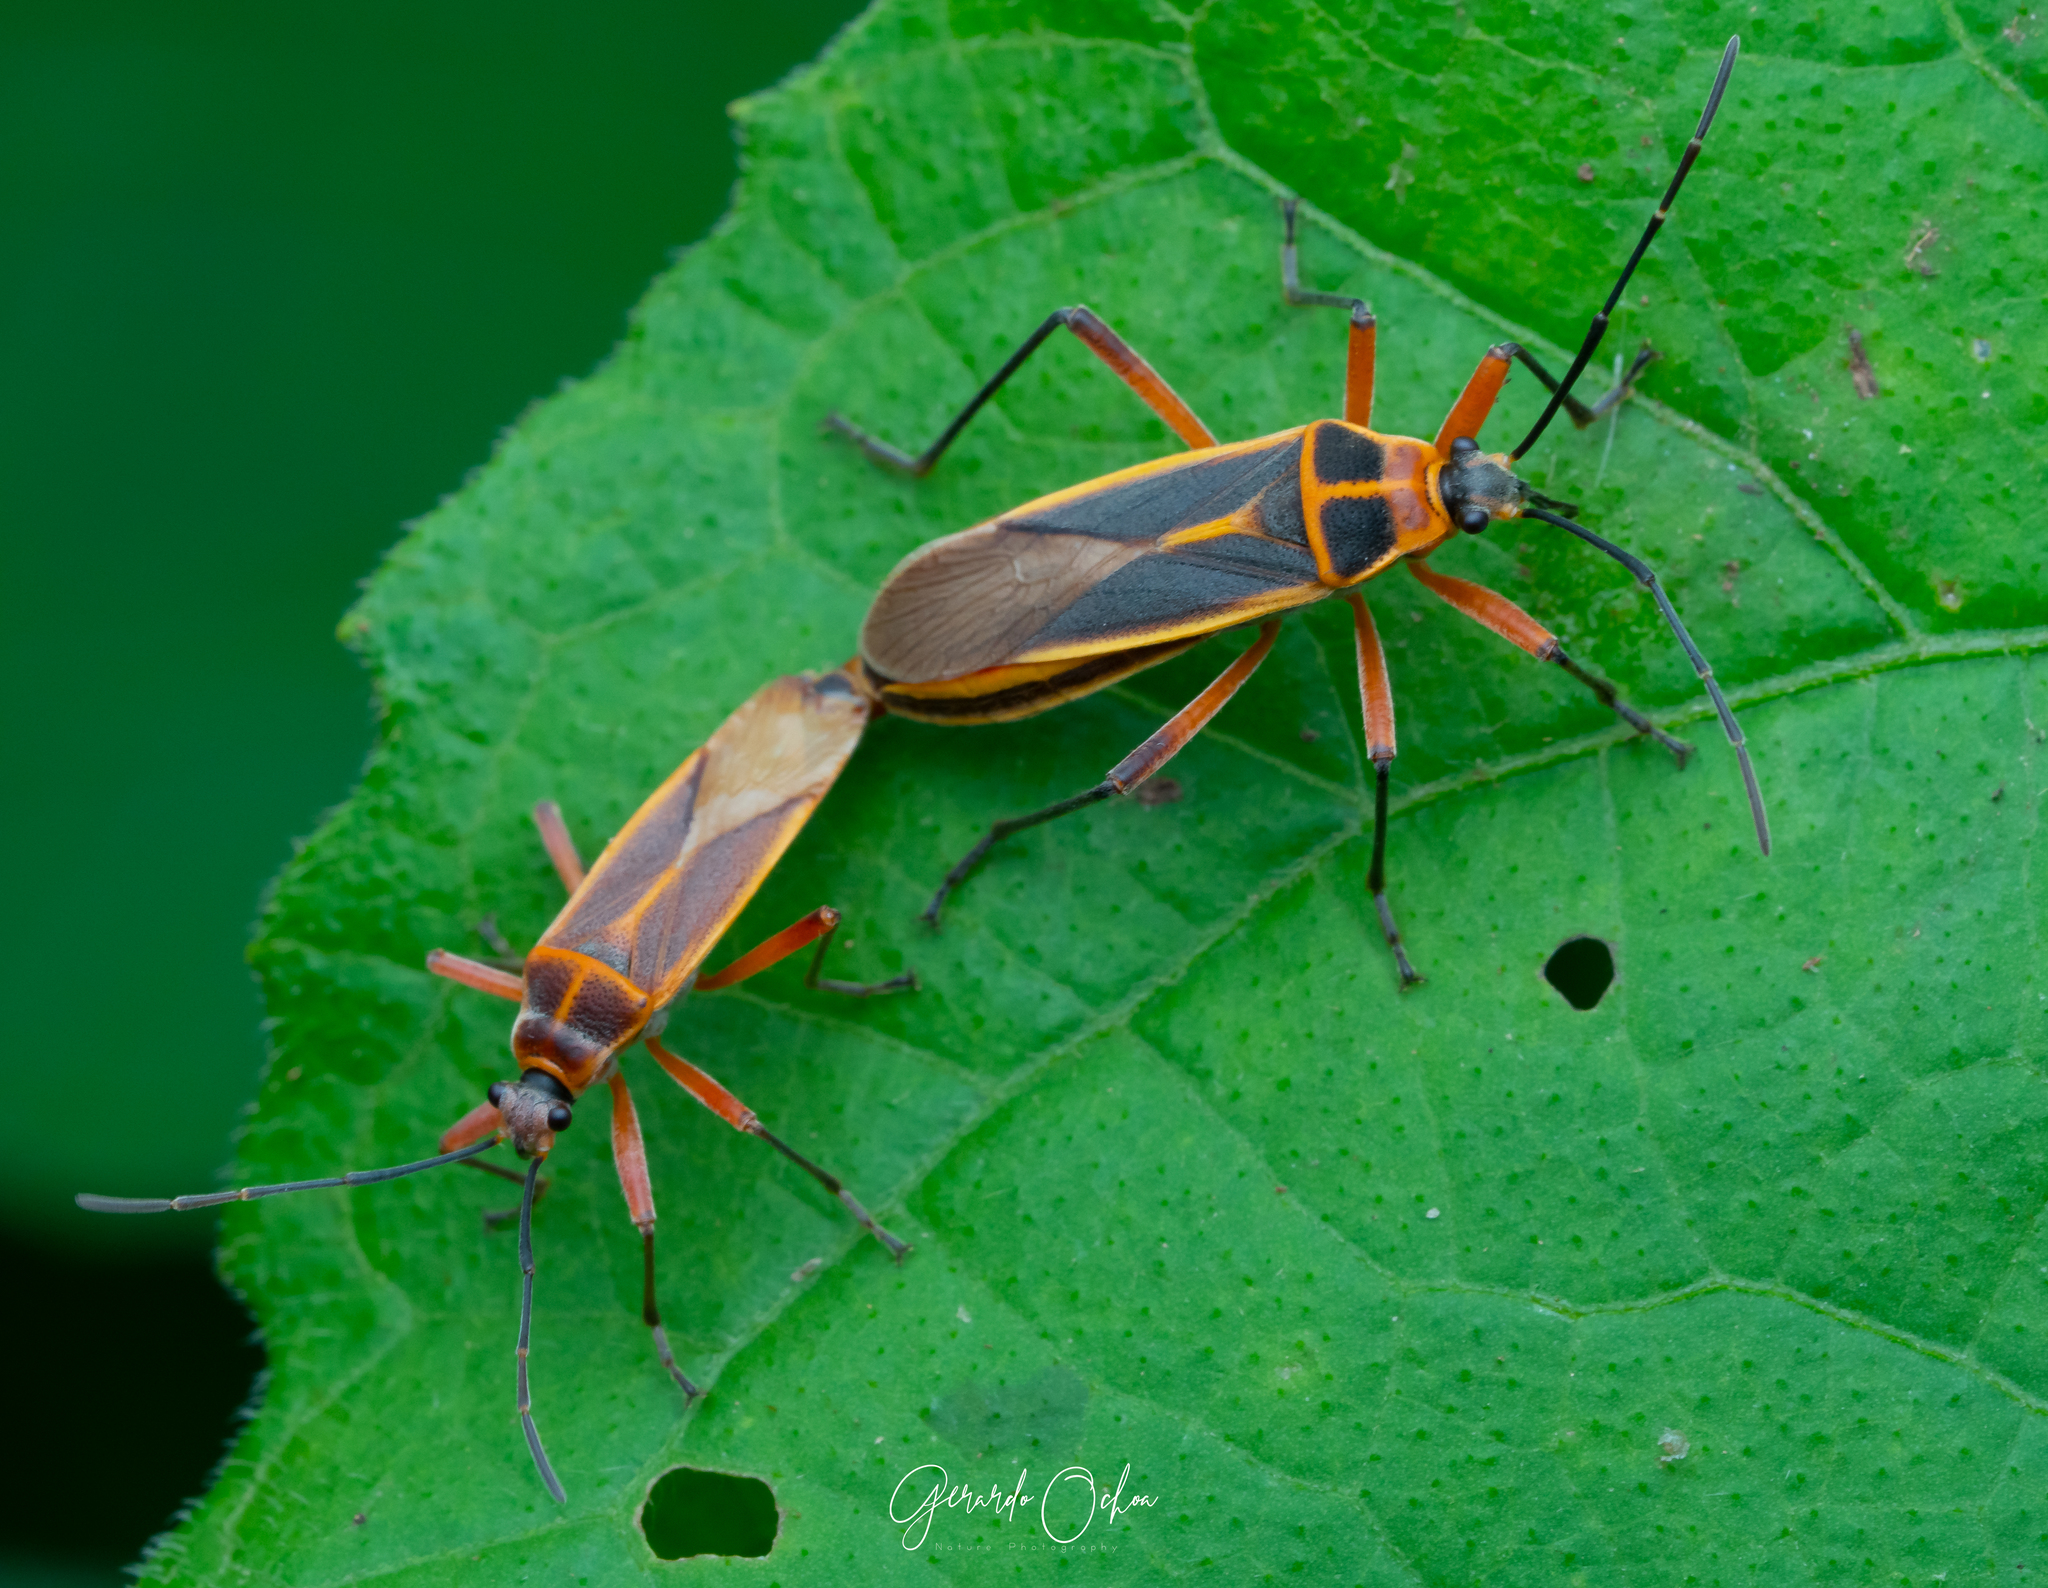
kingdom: Animalia
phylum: Arthropoda
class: Insecta
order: Hemiptera
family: Largidae
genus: Stenomacra
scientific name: Stenomacra marginella
